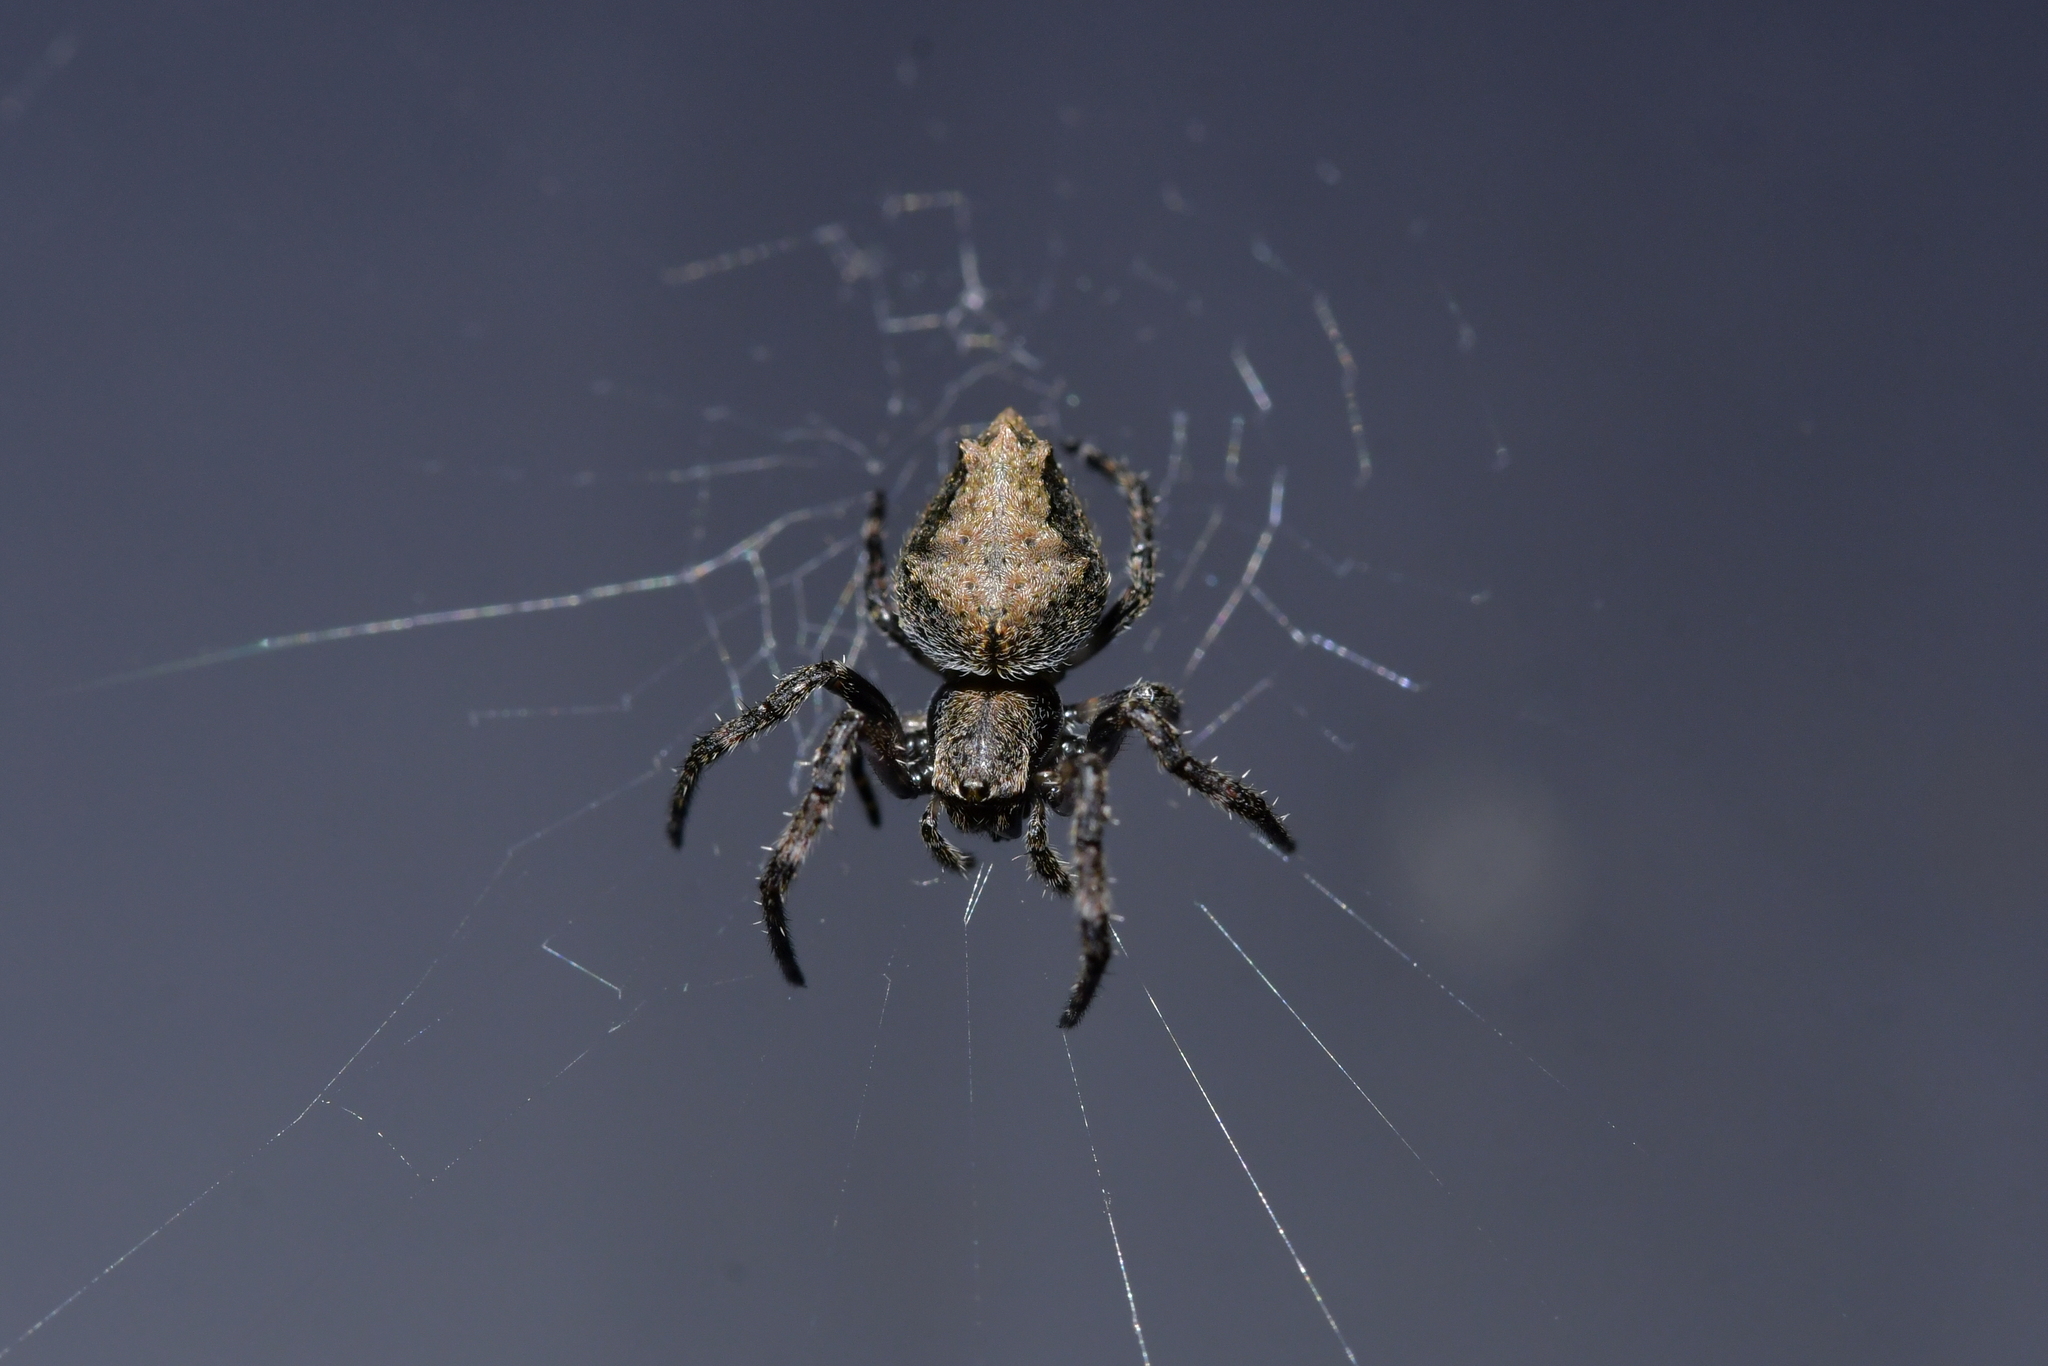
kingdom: Animalia
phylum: Arthropoda
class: Arachnida
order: Araneae
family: Araneidae
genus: Eriophora
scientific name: Eriophora pustulosa
